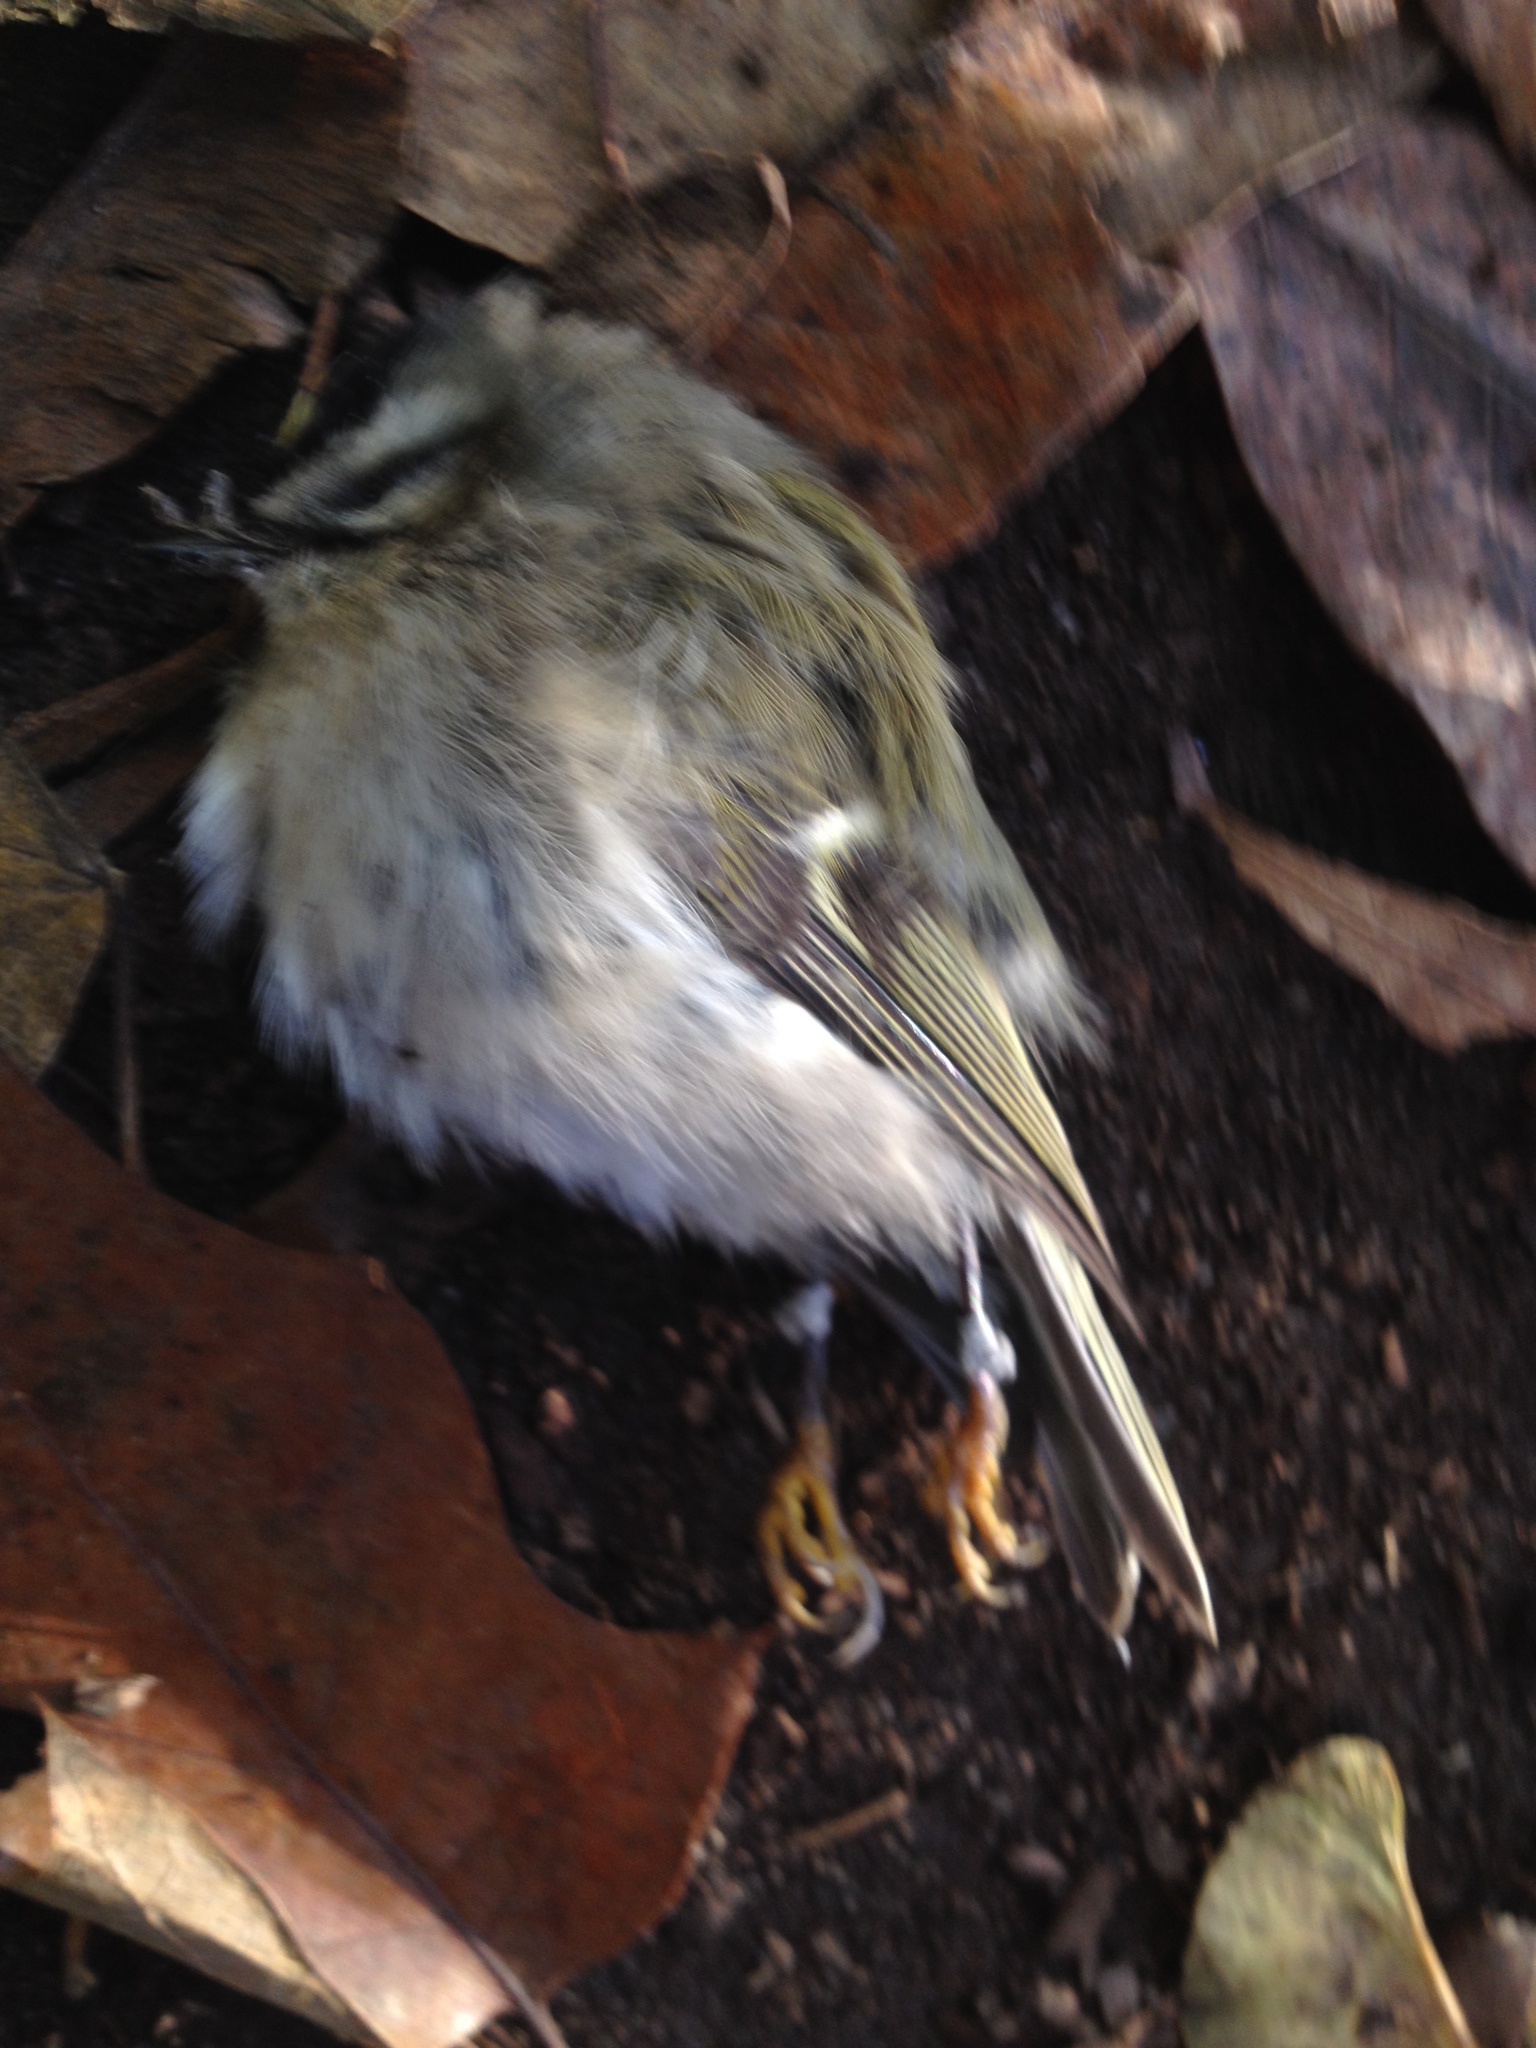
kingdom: Animalia
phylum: Chordata
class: Aves
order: Passeriformes
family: Regulidae
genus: Regulus
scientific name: Regulus satrapa
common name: Golden-crowned kinglet
